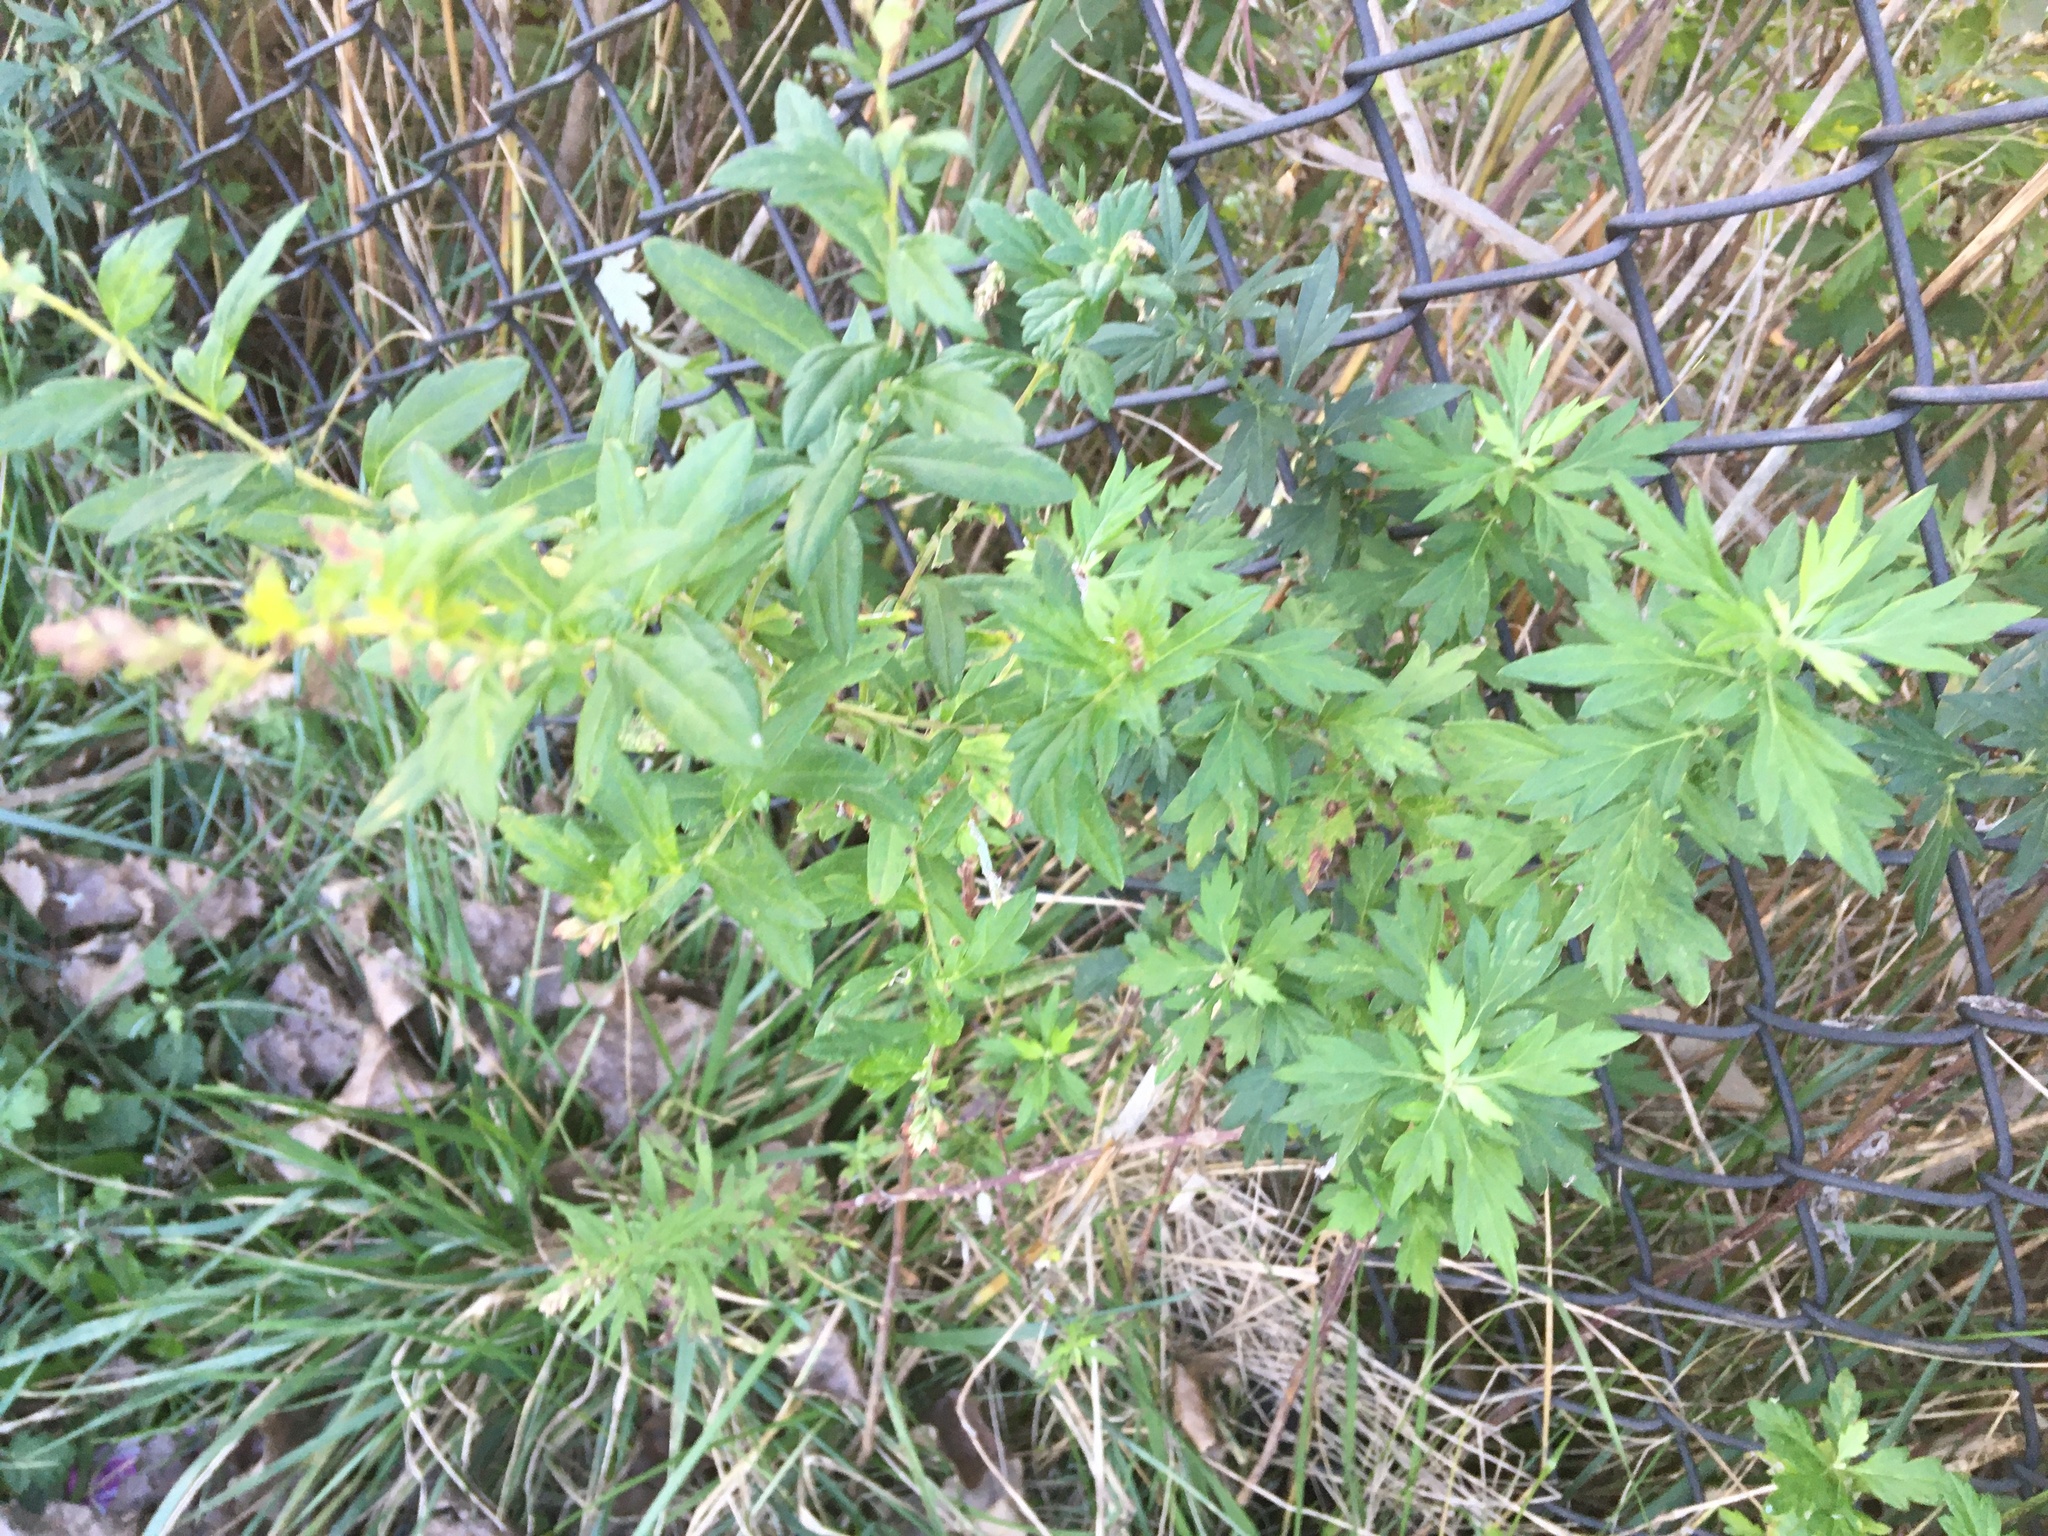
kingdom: Plantae
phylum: Tracheophyta
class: Magnoliopsida
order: Asterales
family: Asteraceae
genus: Artemisia
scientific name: Artemisia vulgaris
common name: Mugwort
